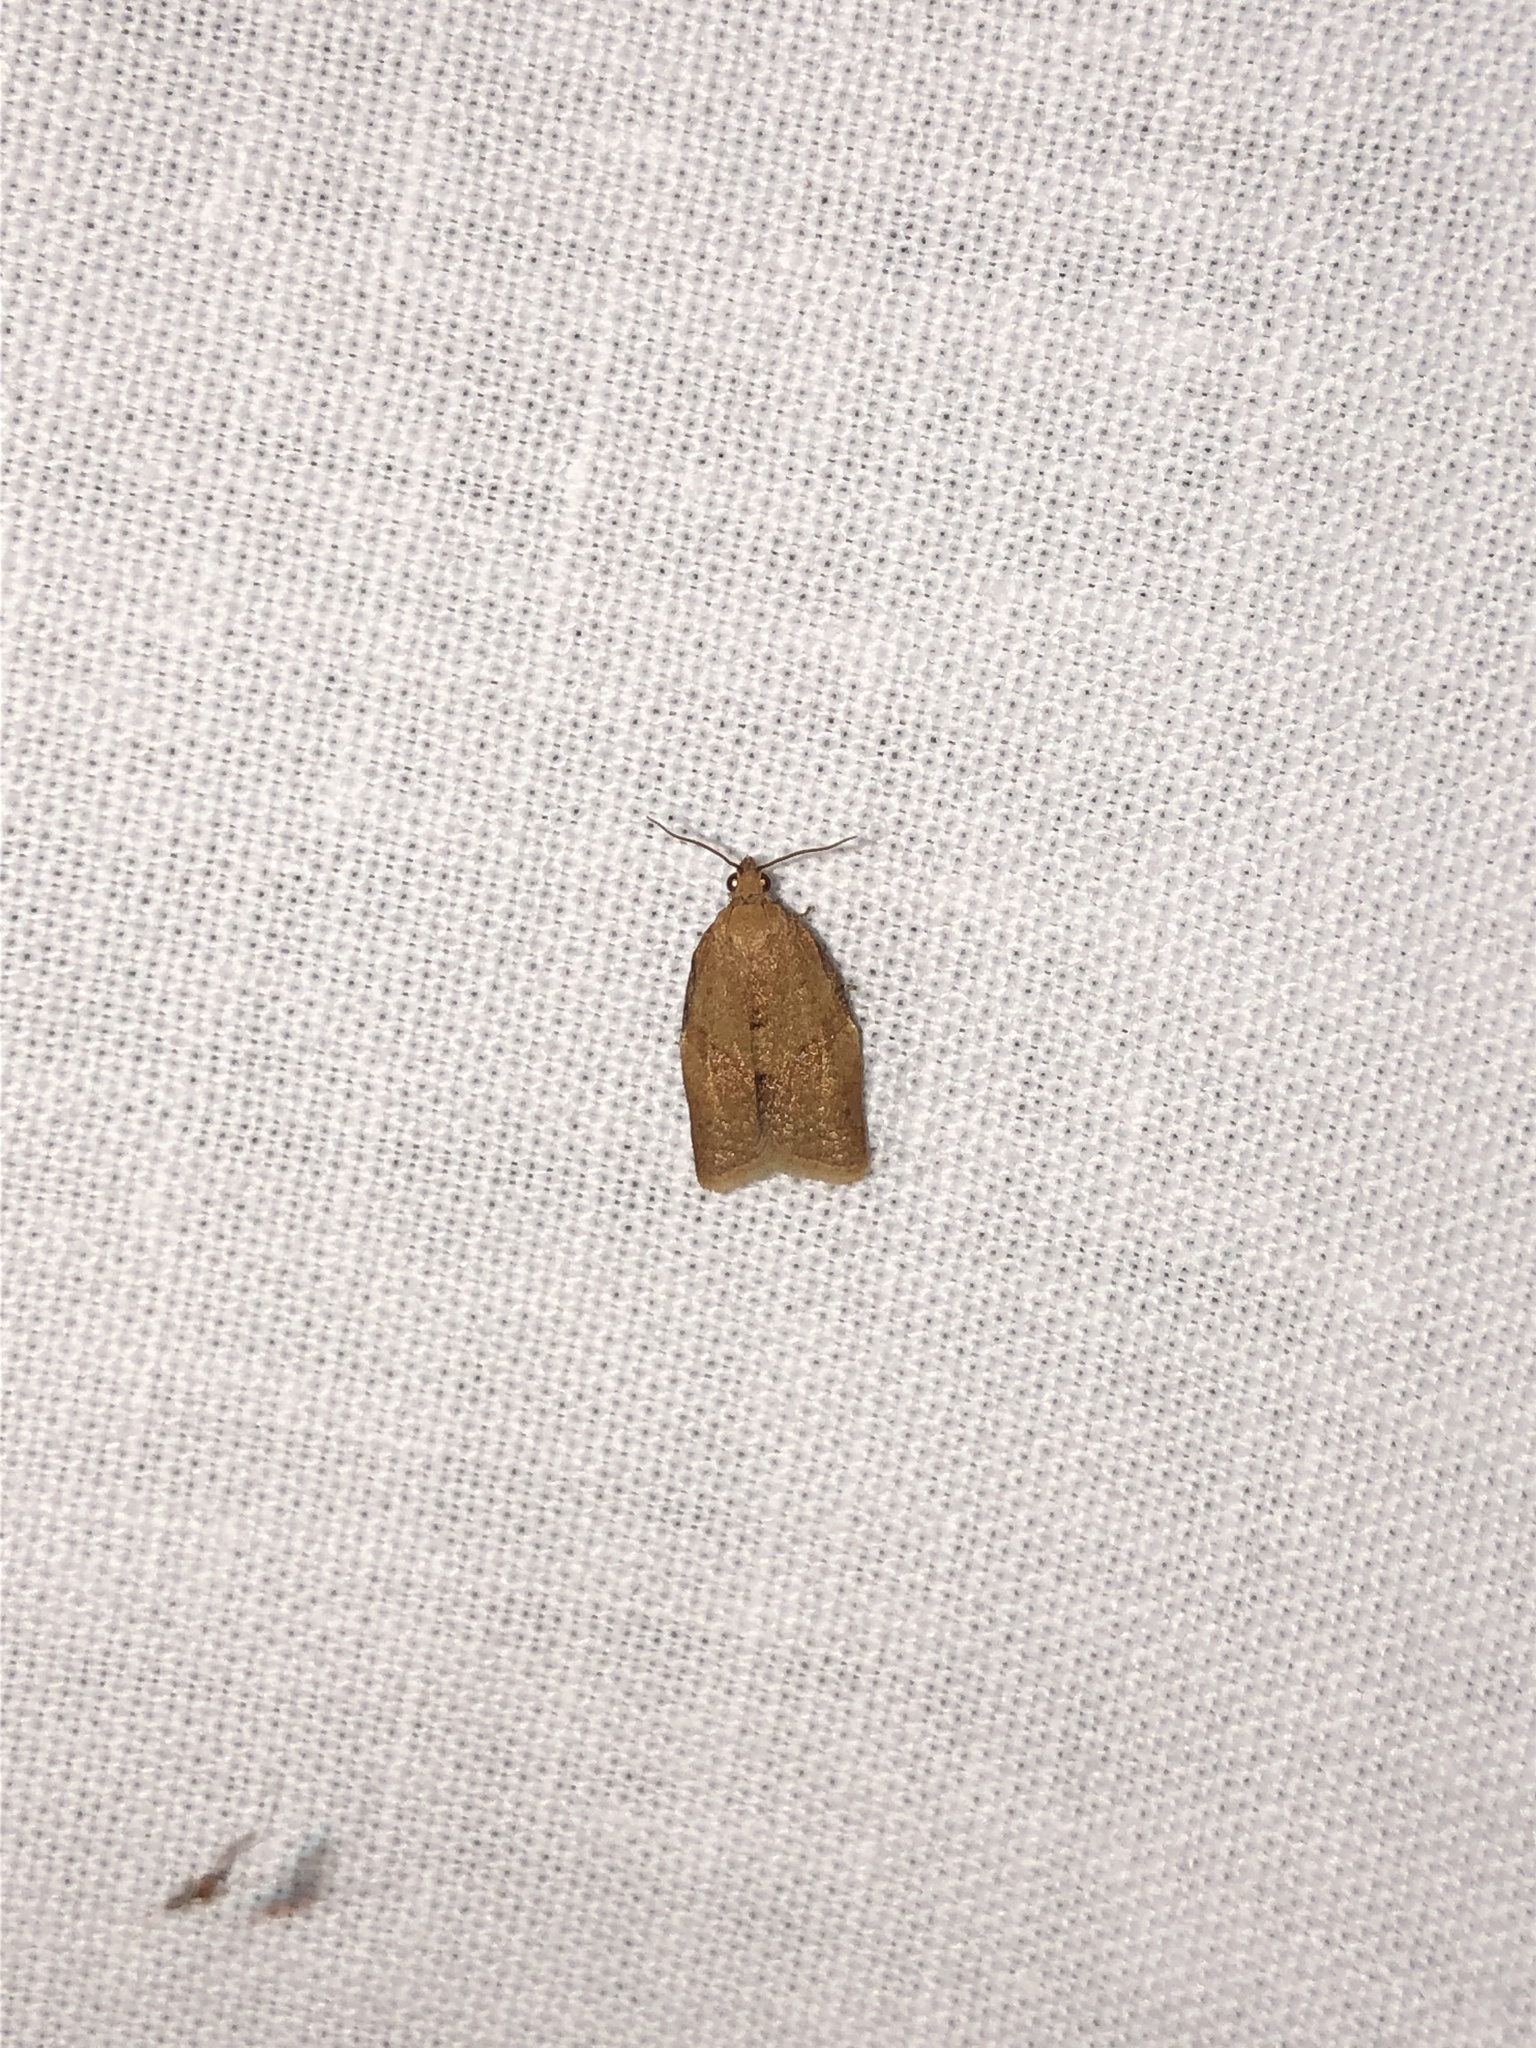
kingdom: Animalia
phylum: Arthropoda
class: Insecta
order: Lepidoptera
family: Tortricidae
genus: Clepsis
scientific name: Clepsis consimilana
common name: Privet tortrix
